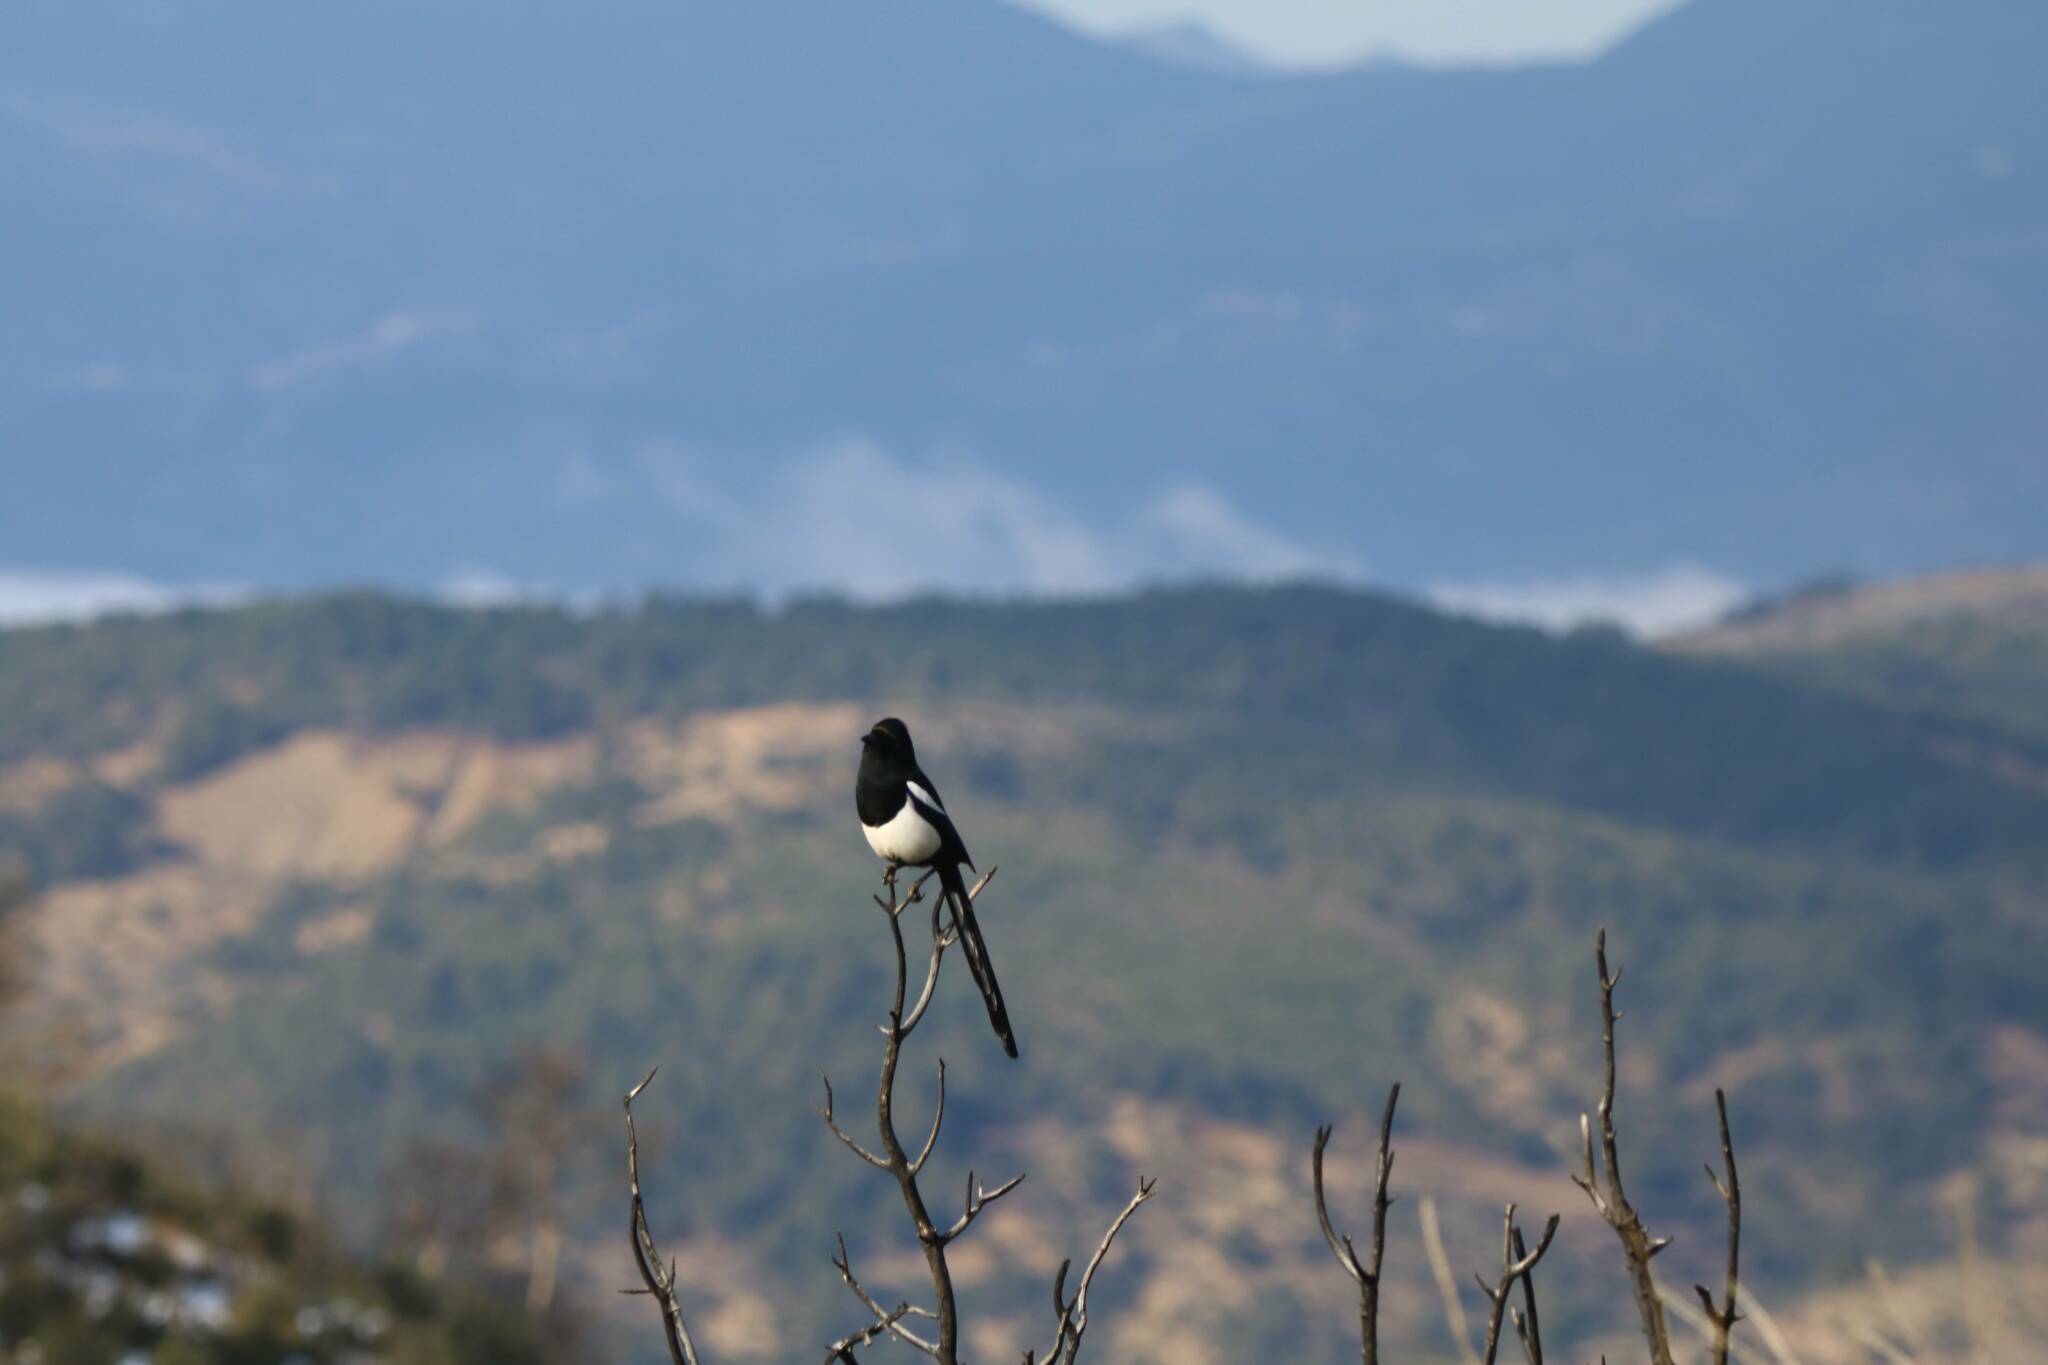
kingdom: Animalia
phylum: Chordata
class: Aves
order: Passeriformes
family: Corvidae
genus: Pica
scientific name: Pica mauritanica
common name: Maghreb magpie
